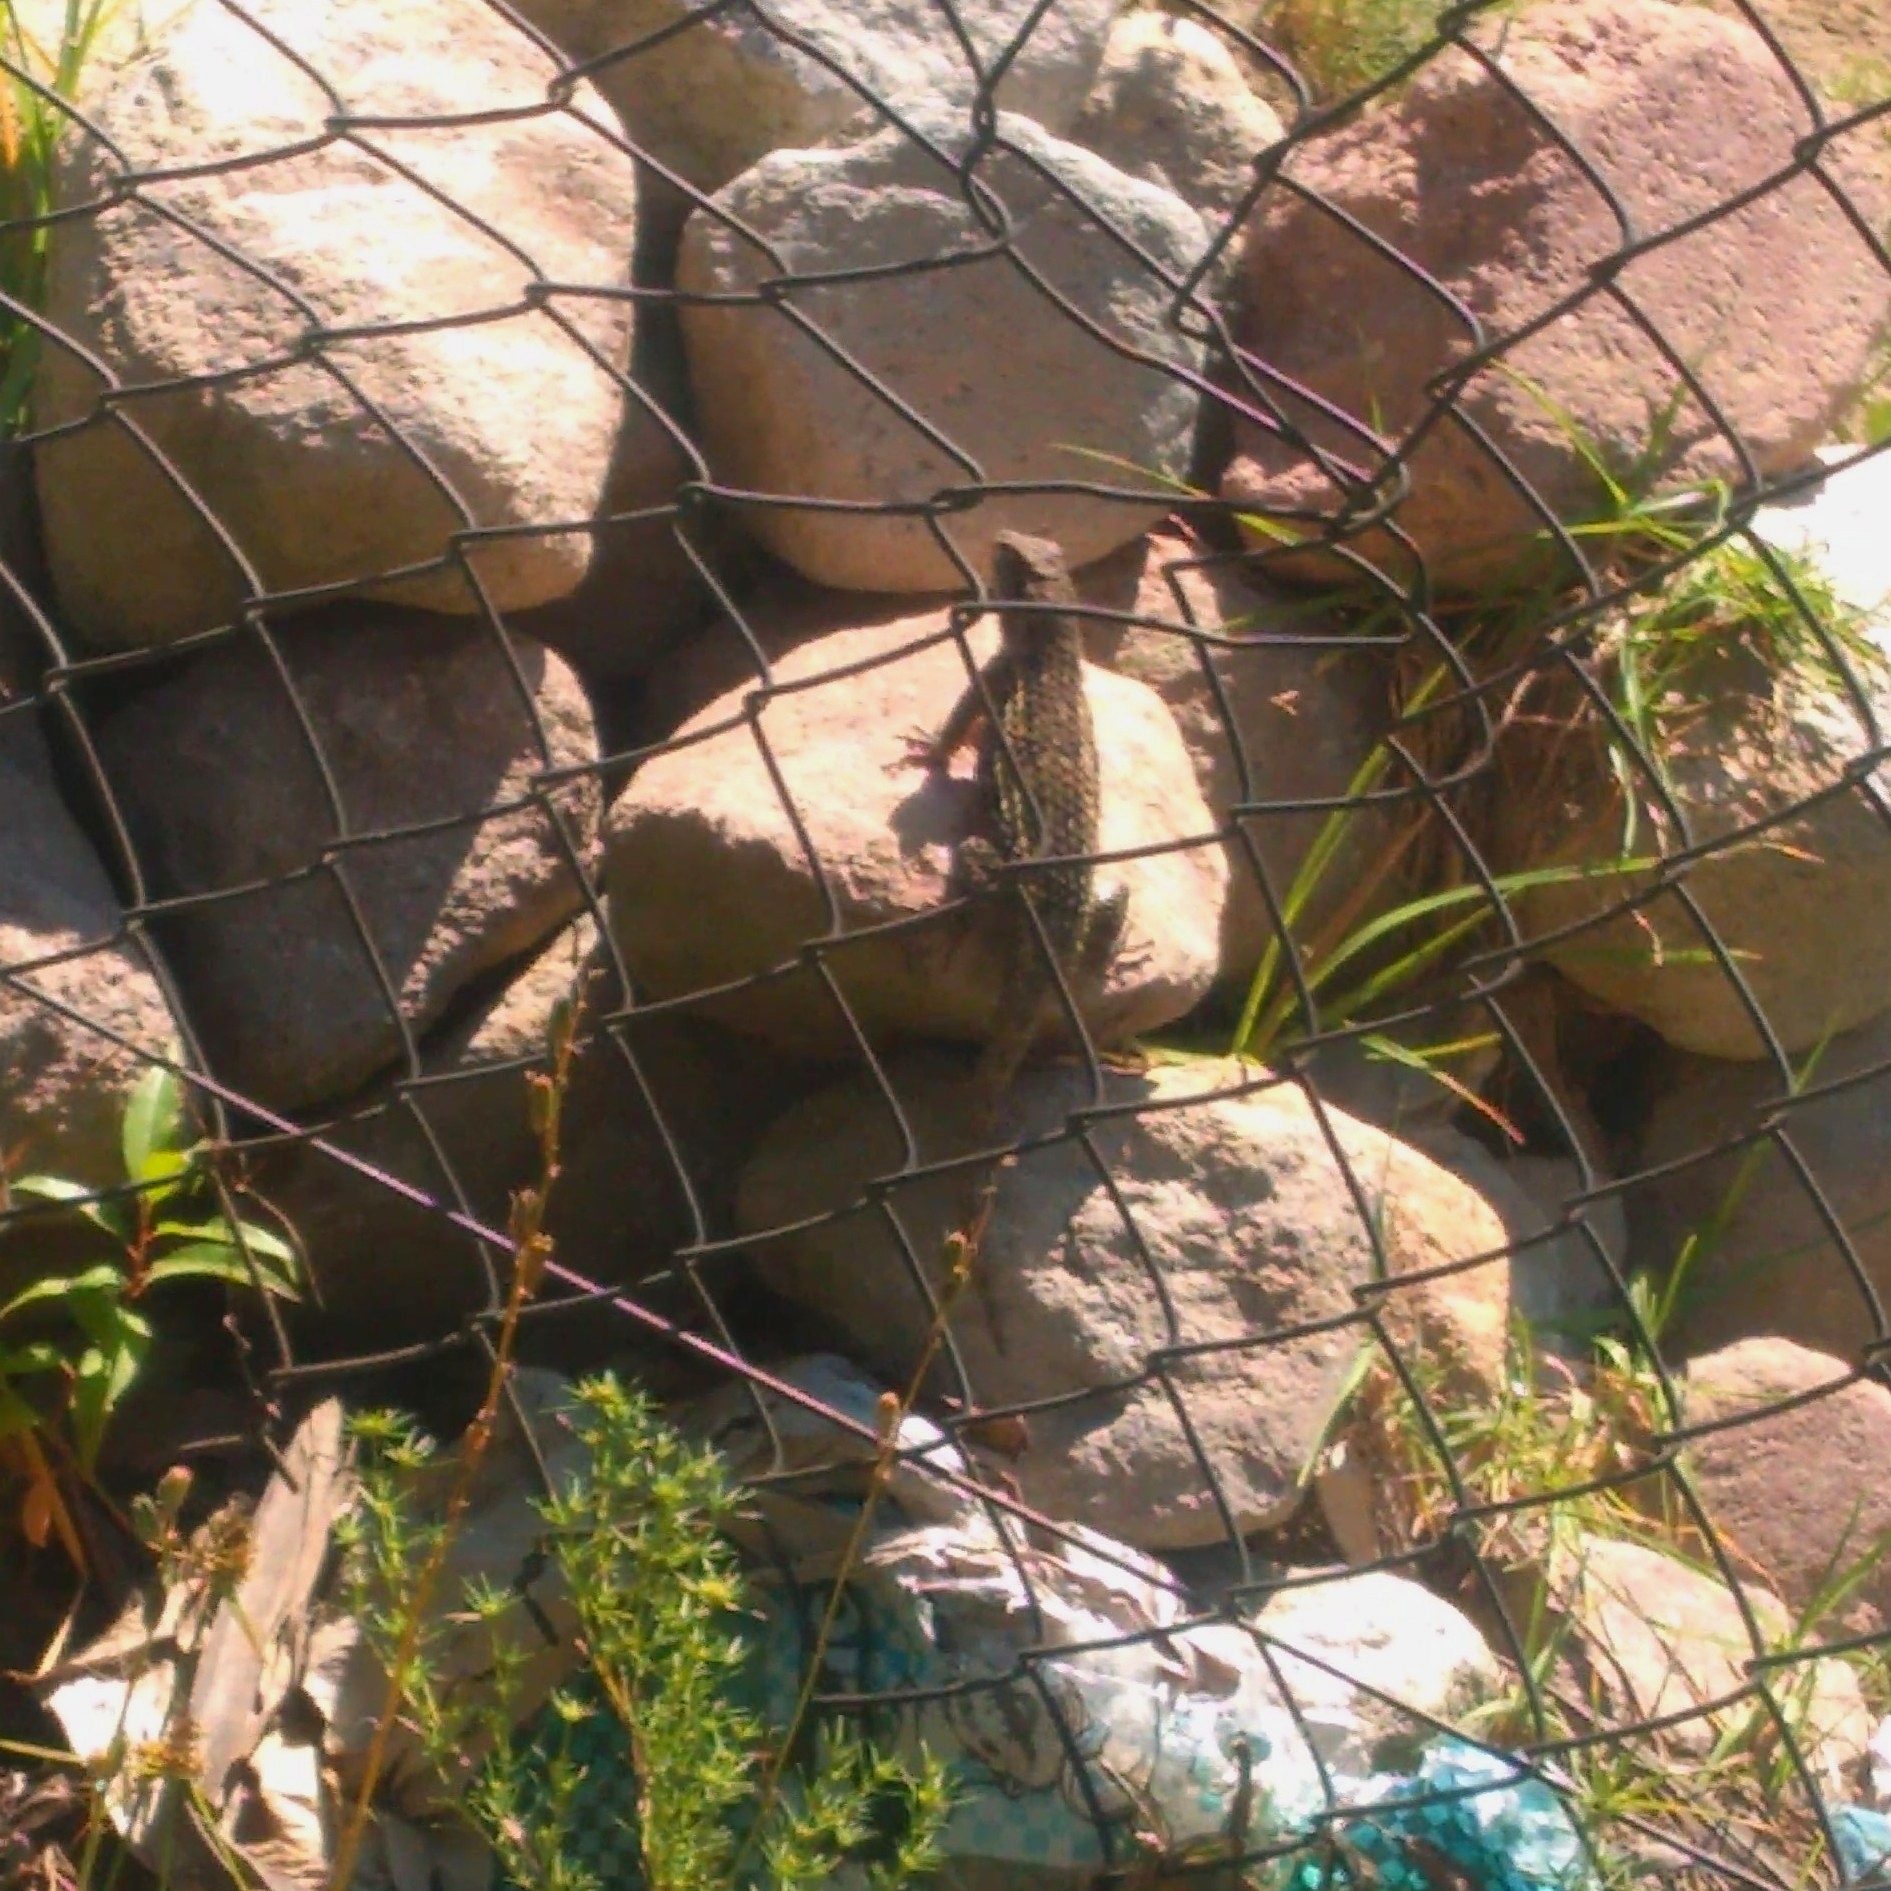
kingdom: Animalia
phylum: Chordata
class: Squamata
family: Phrynosomatidae
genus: Sceloporus
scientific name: Sceloporus spinosus
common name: Blue-spotted spiny lizard [caeruleopunctatus]
